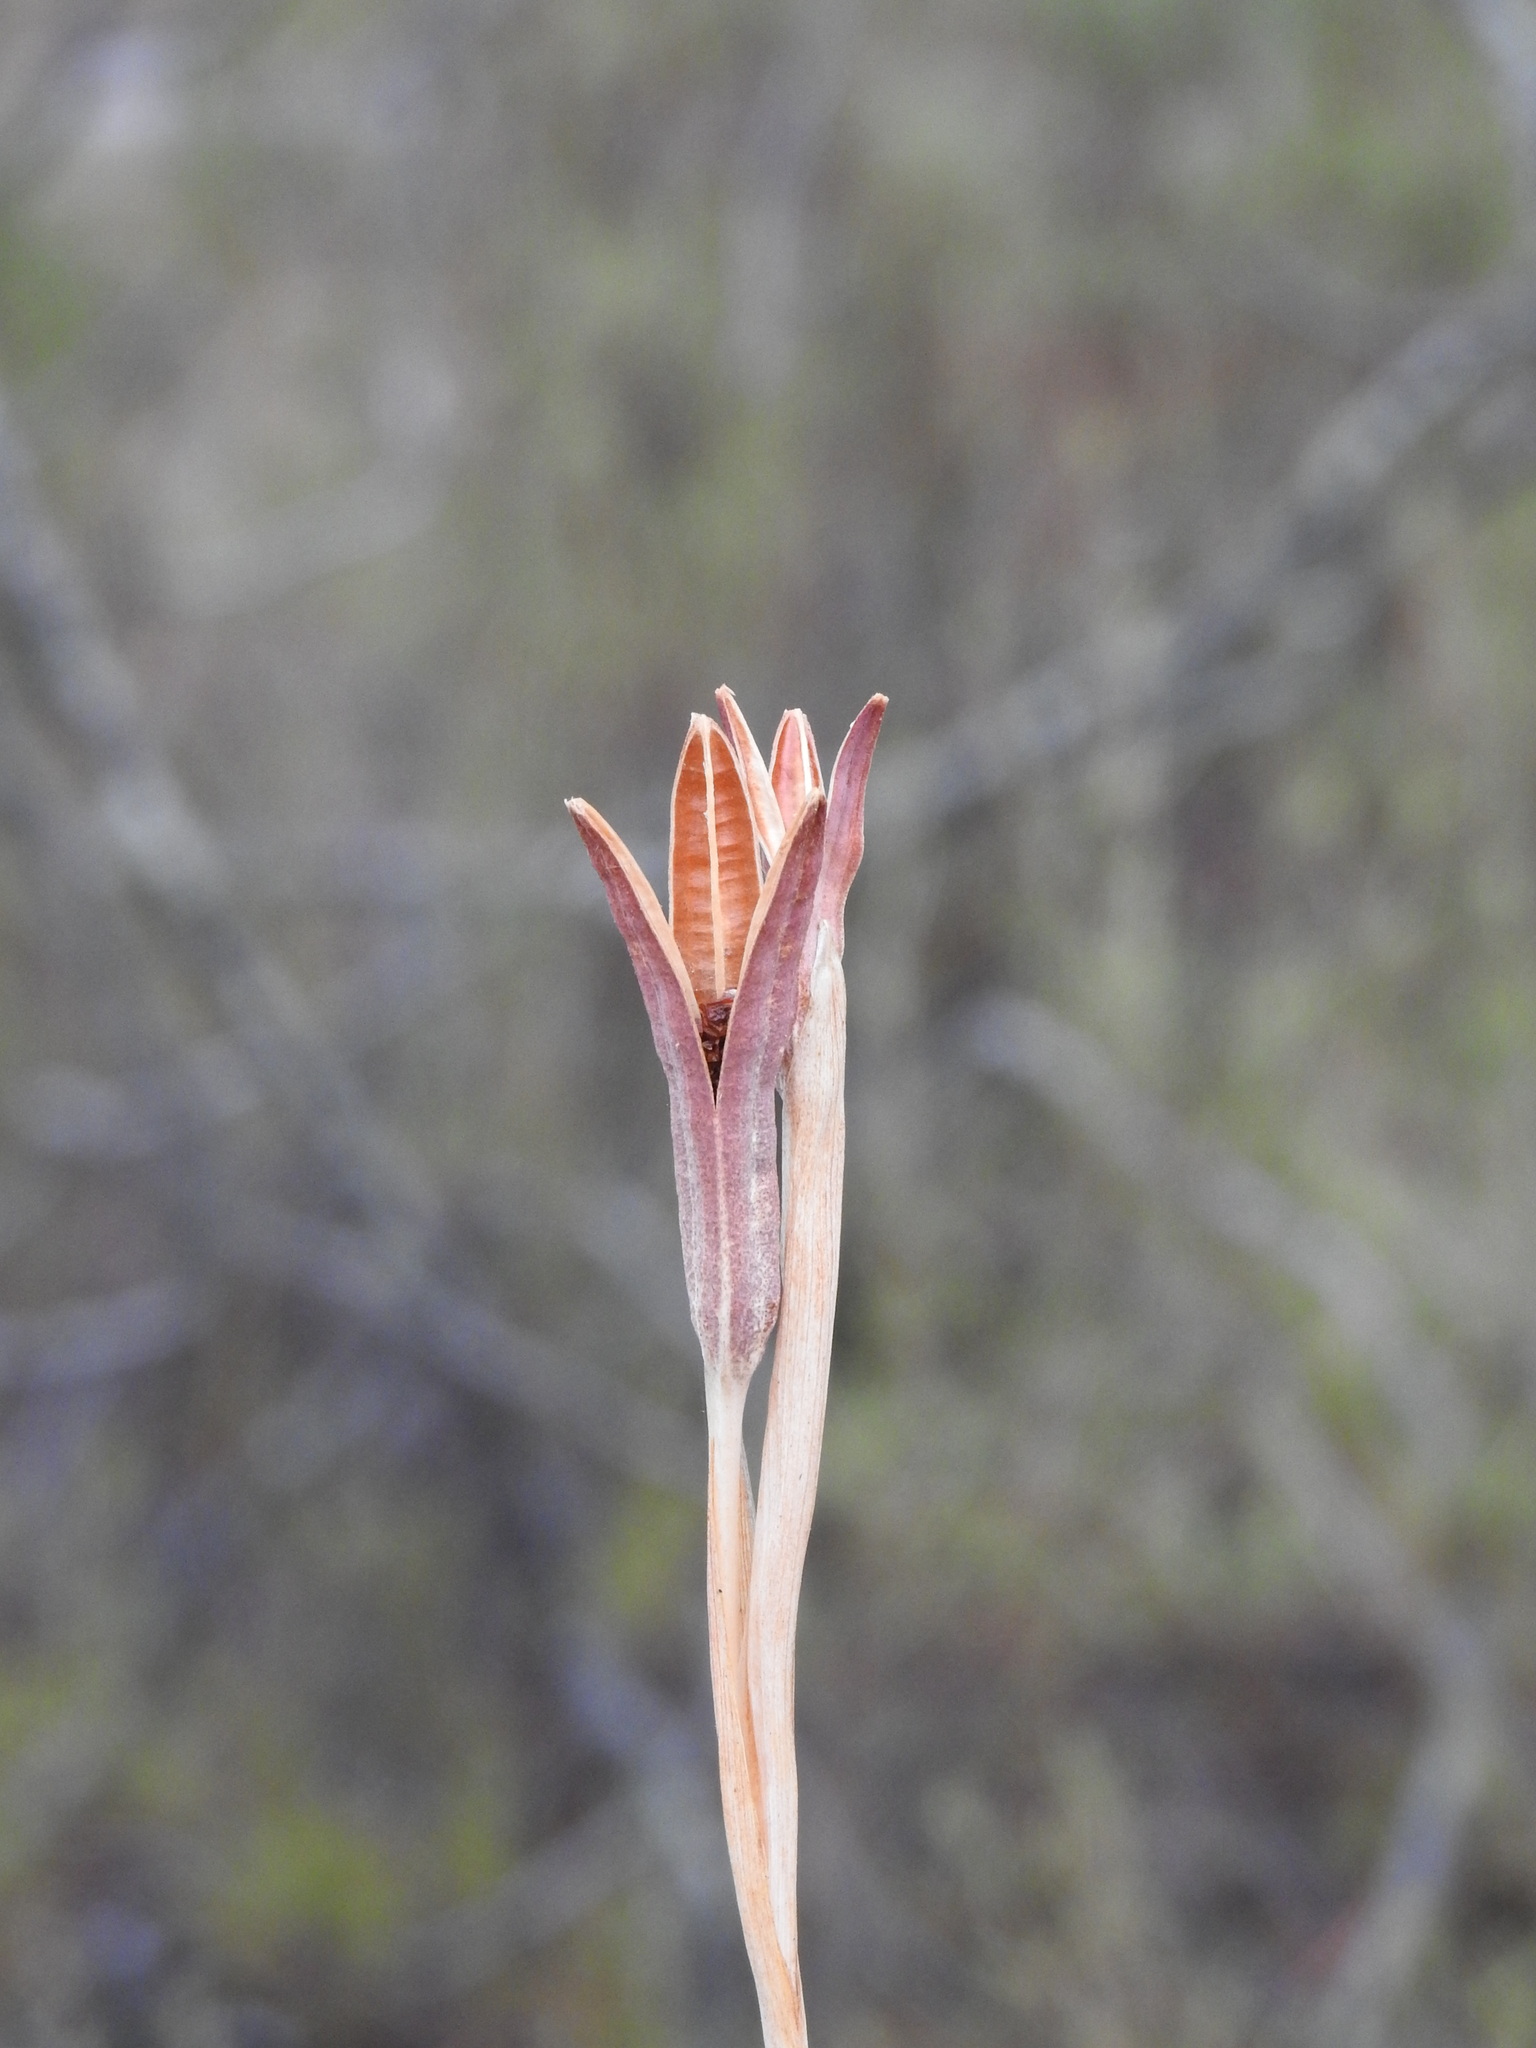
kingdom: Plantae
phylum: Tracheophyta
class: Liliopsida
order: Asparagales
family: Iridaceae
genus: Iris
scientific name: Iris xiphium
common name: Spanish iris
